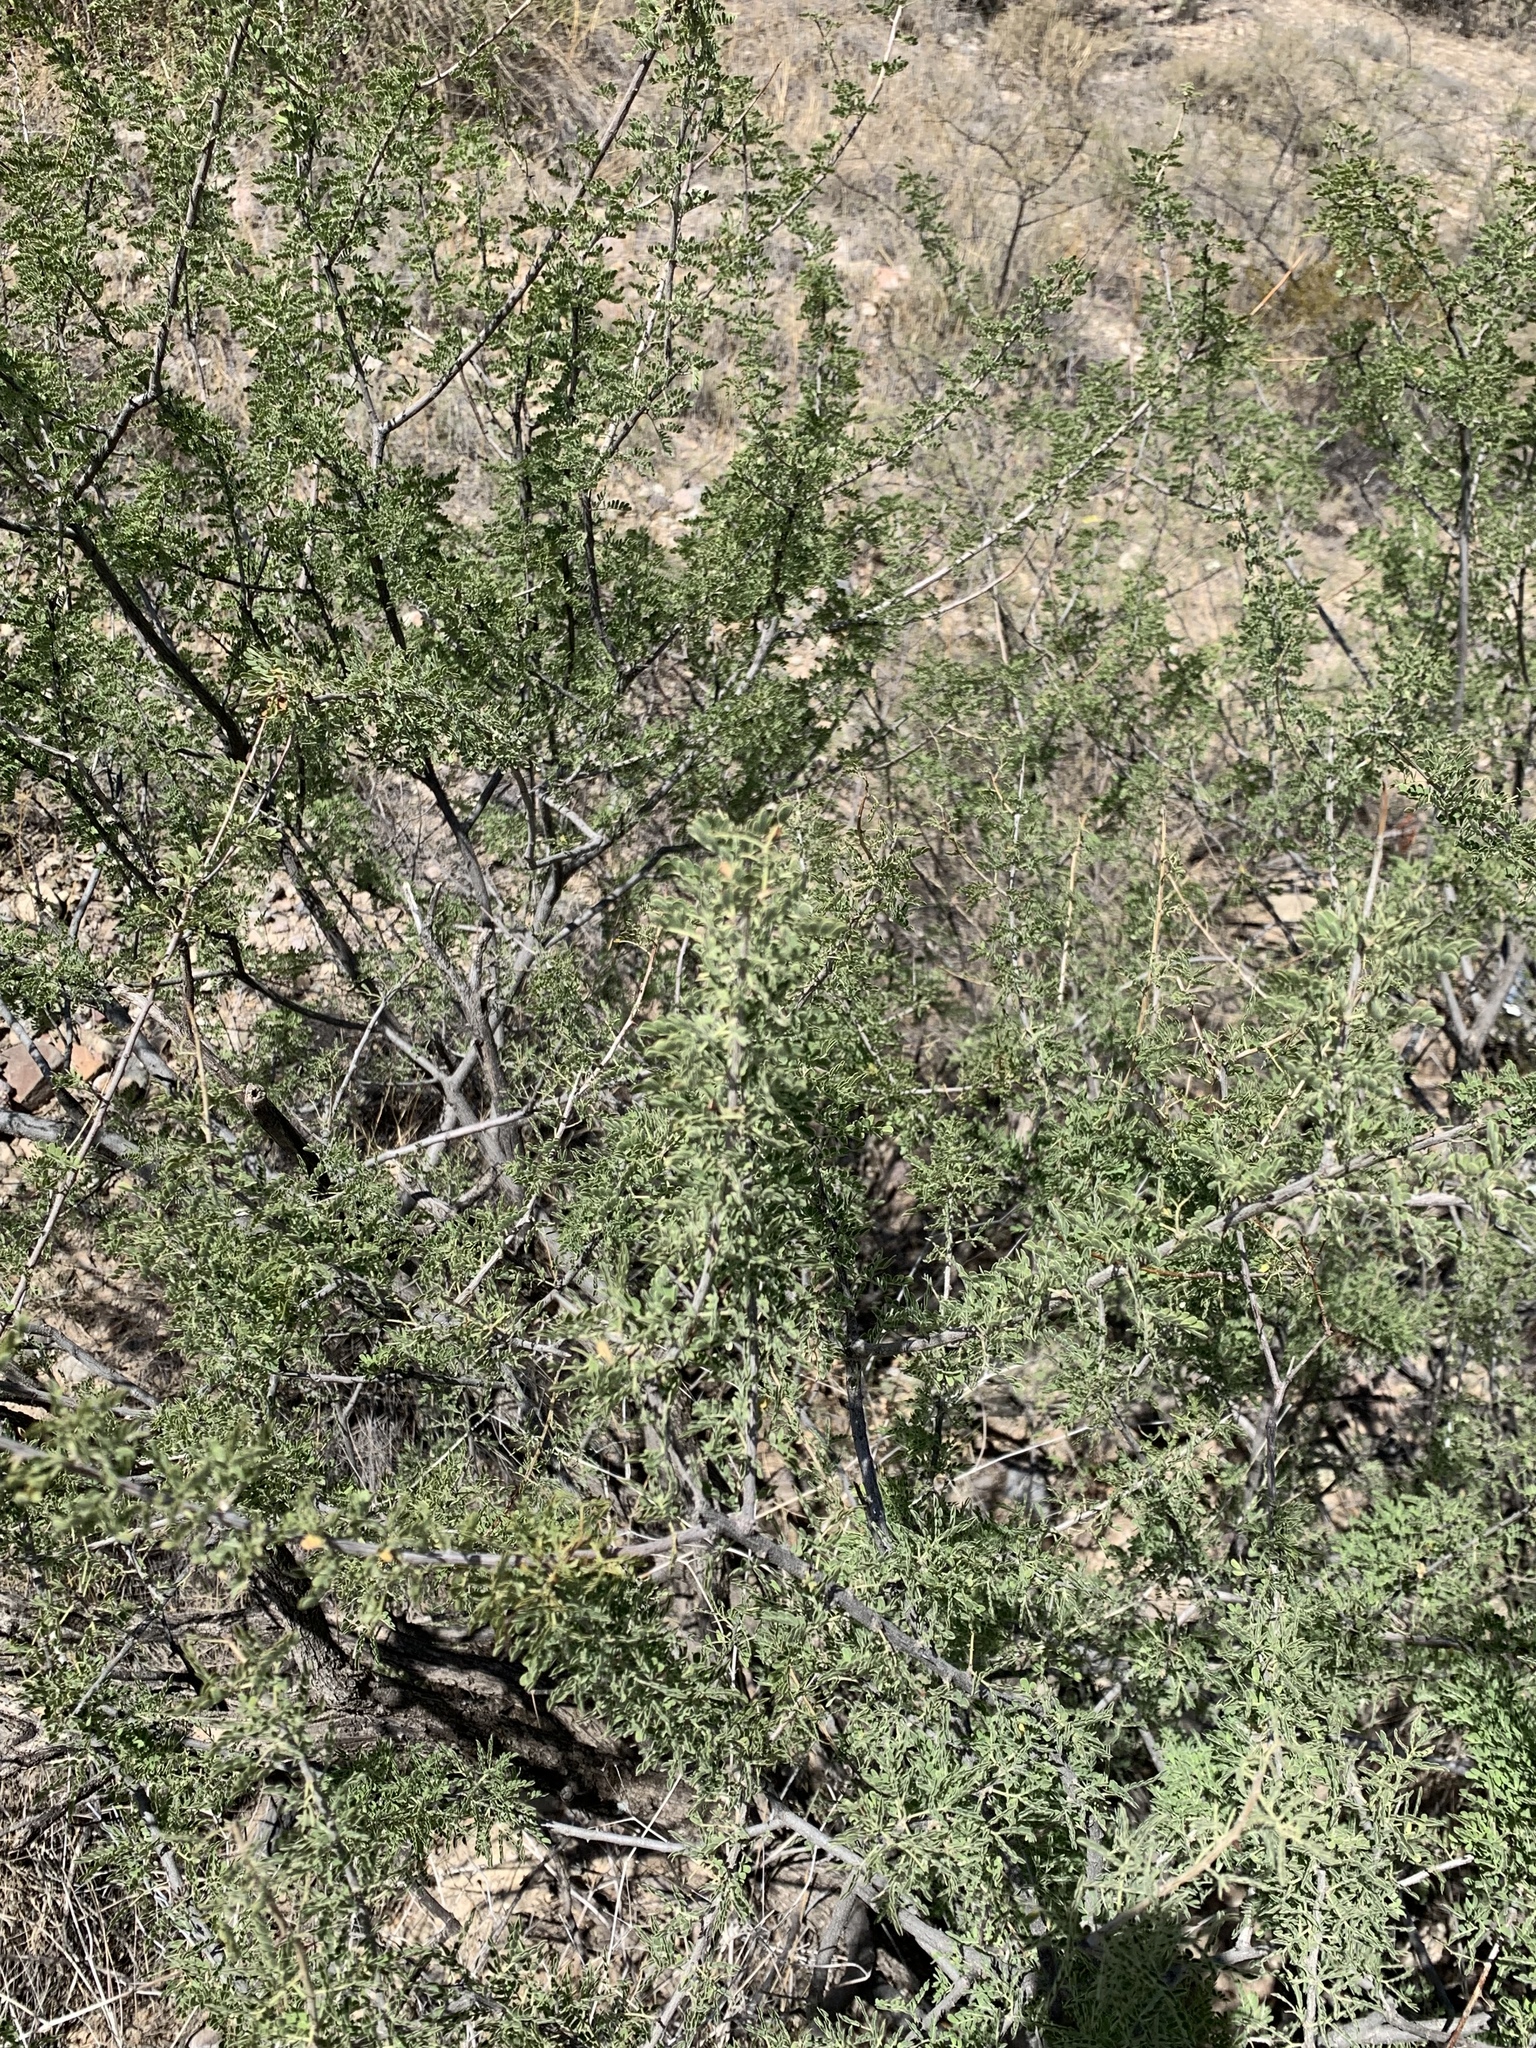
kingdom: Plantae
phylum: Tracheophyta
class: Magnoliopsida
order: Fabales
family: Fabaceae
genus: Senegalia
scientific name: Senegalia greggii
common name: Texas-mimosa
